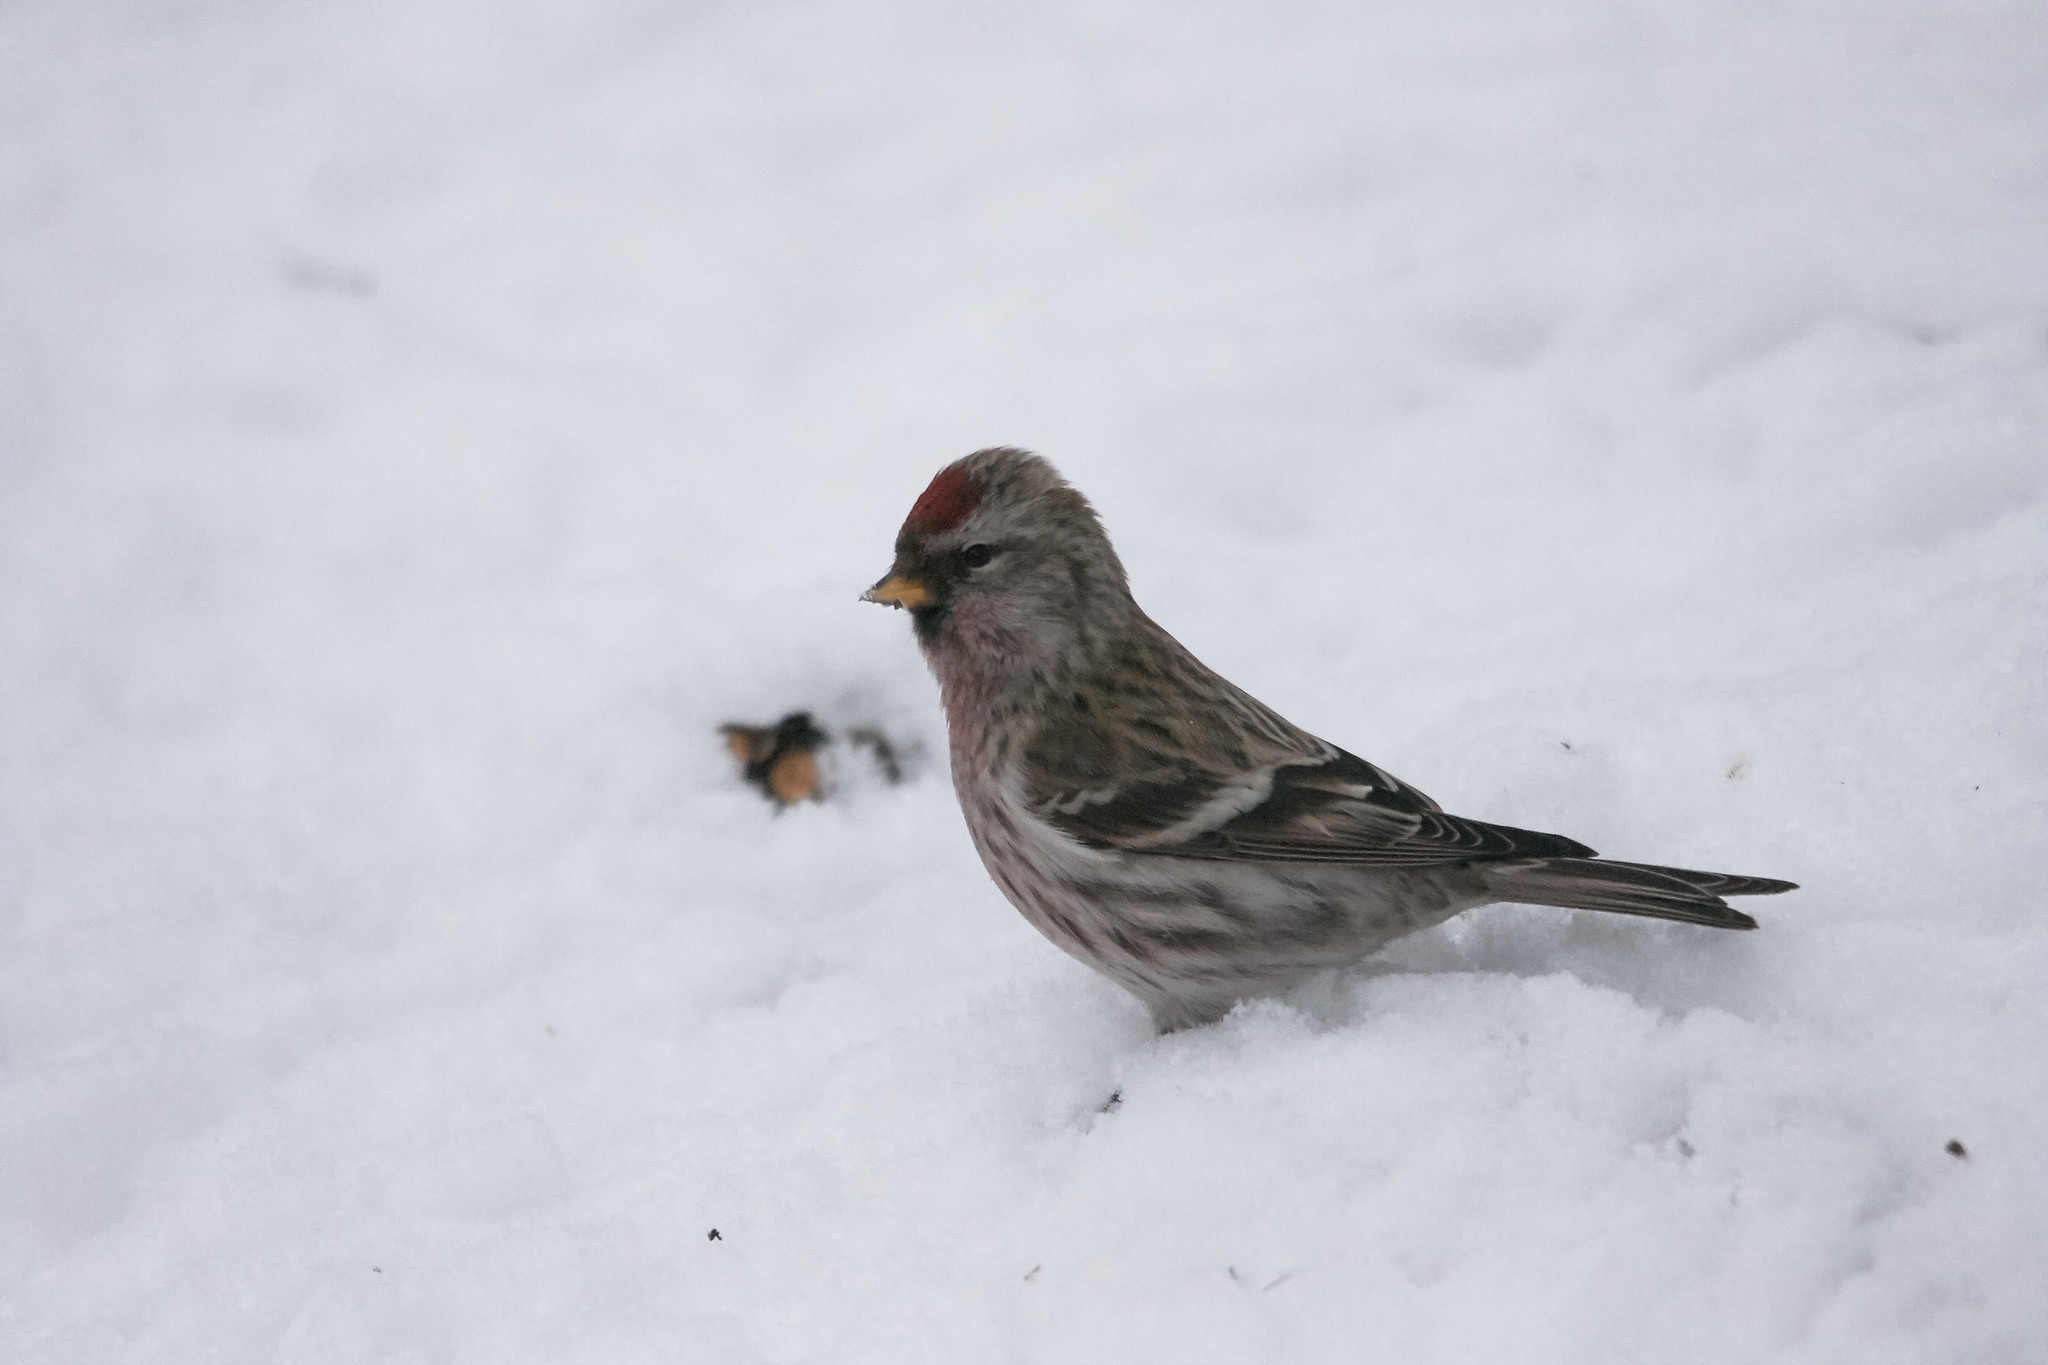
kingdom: Animalia
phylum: Chordata
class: Aves
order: Passeriformes
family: Fringillidae
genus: Acanthis
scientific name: Acanthis flammea
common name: Common redpoll
